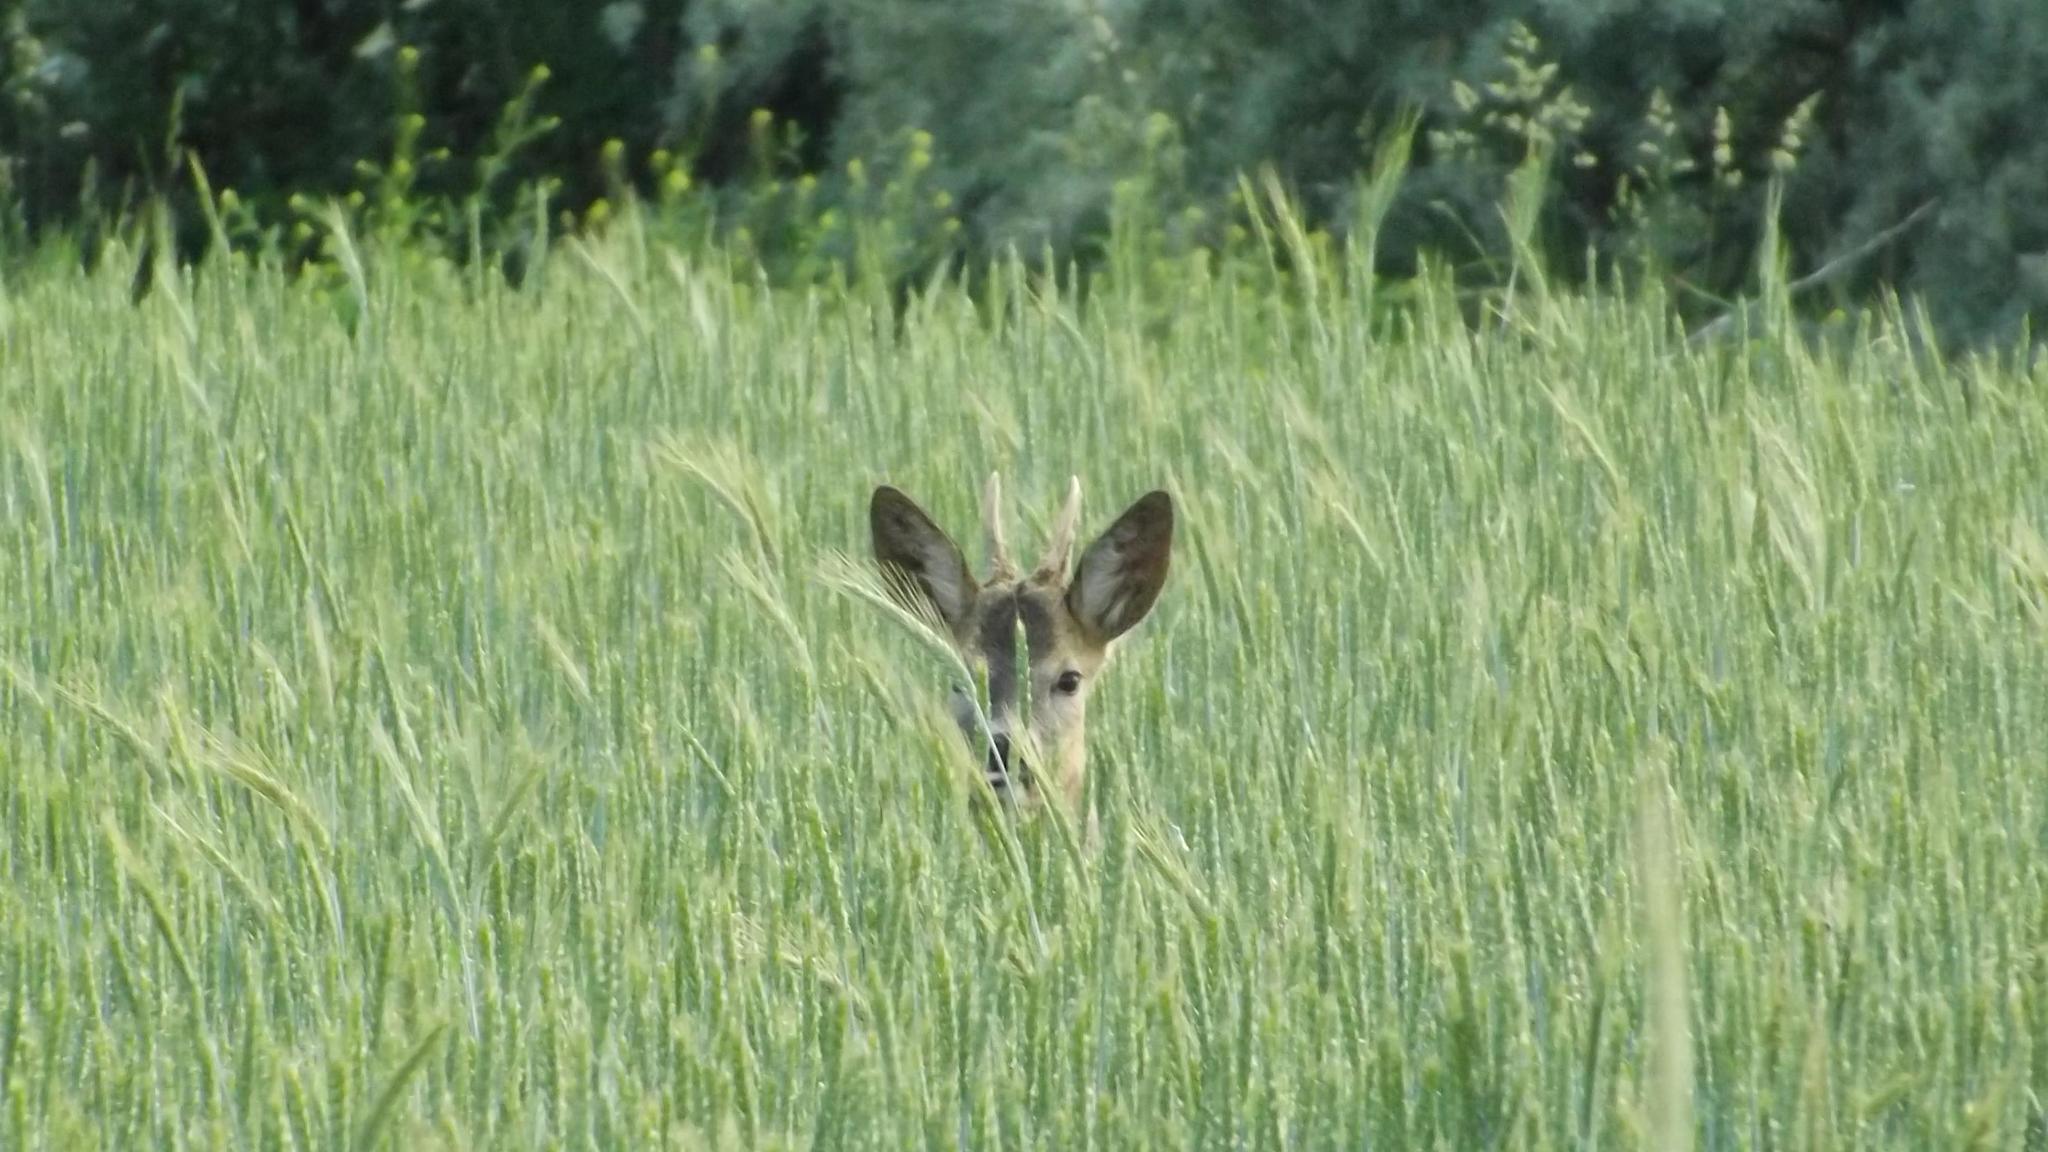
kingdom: Animalia
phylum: Chordata
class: Mammalia
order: Artiodactyla
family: Cervidae
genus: Capreolus
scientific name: Capreolus capreolus
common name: Western roe deer
